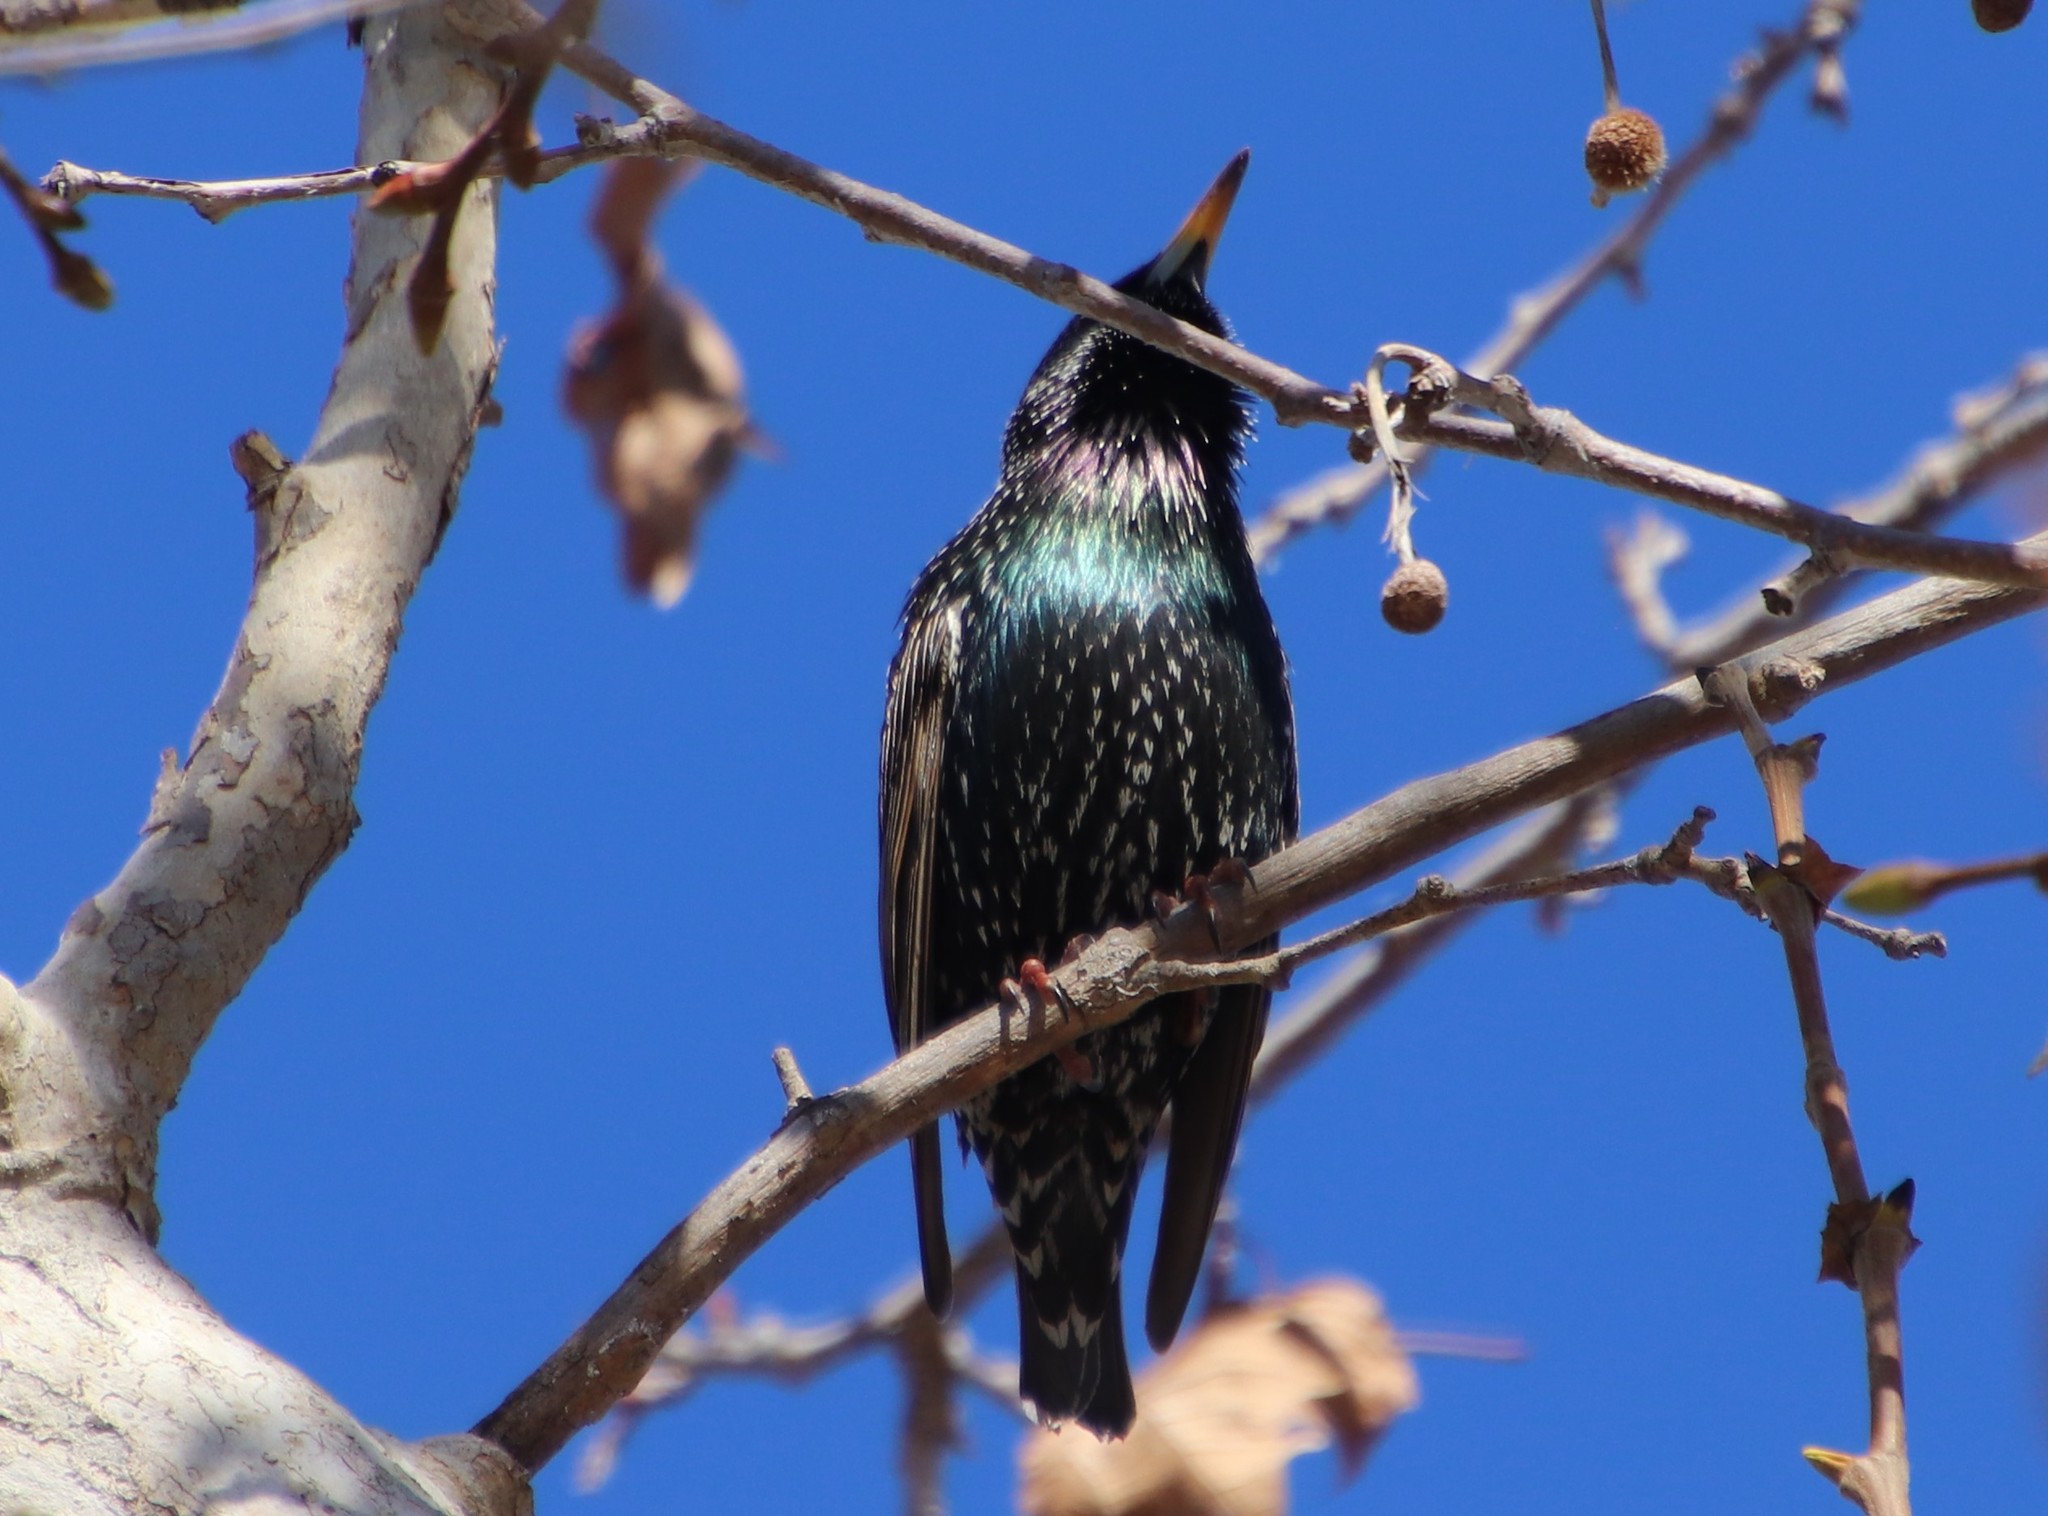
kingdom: Animalia
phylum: Chordata
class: Aves
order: Passeriformes
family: Sturnidae
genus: Sturnus
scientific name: Sturnus vulgaris
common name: Common starling
